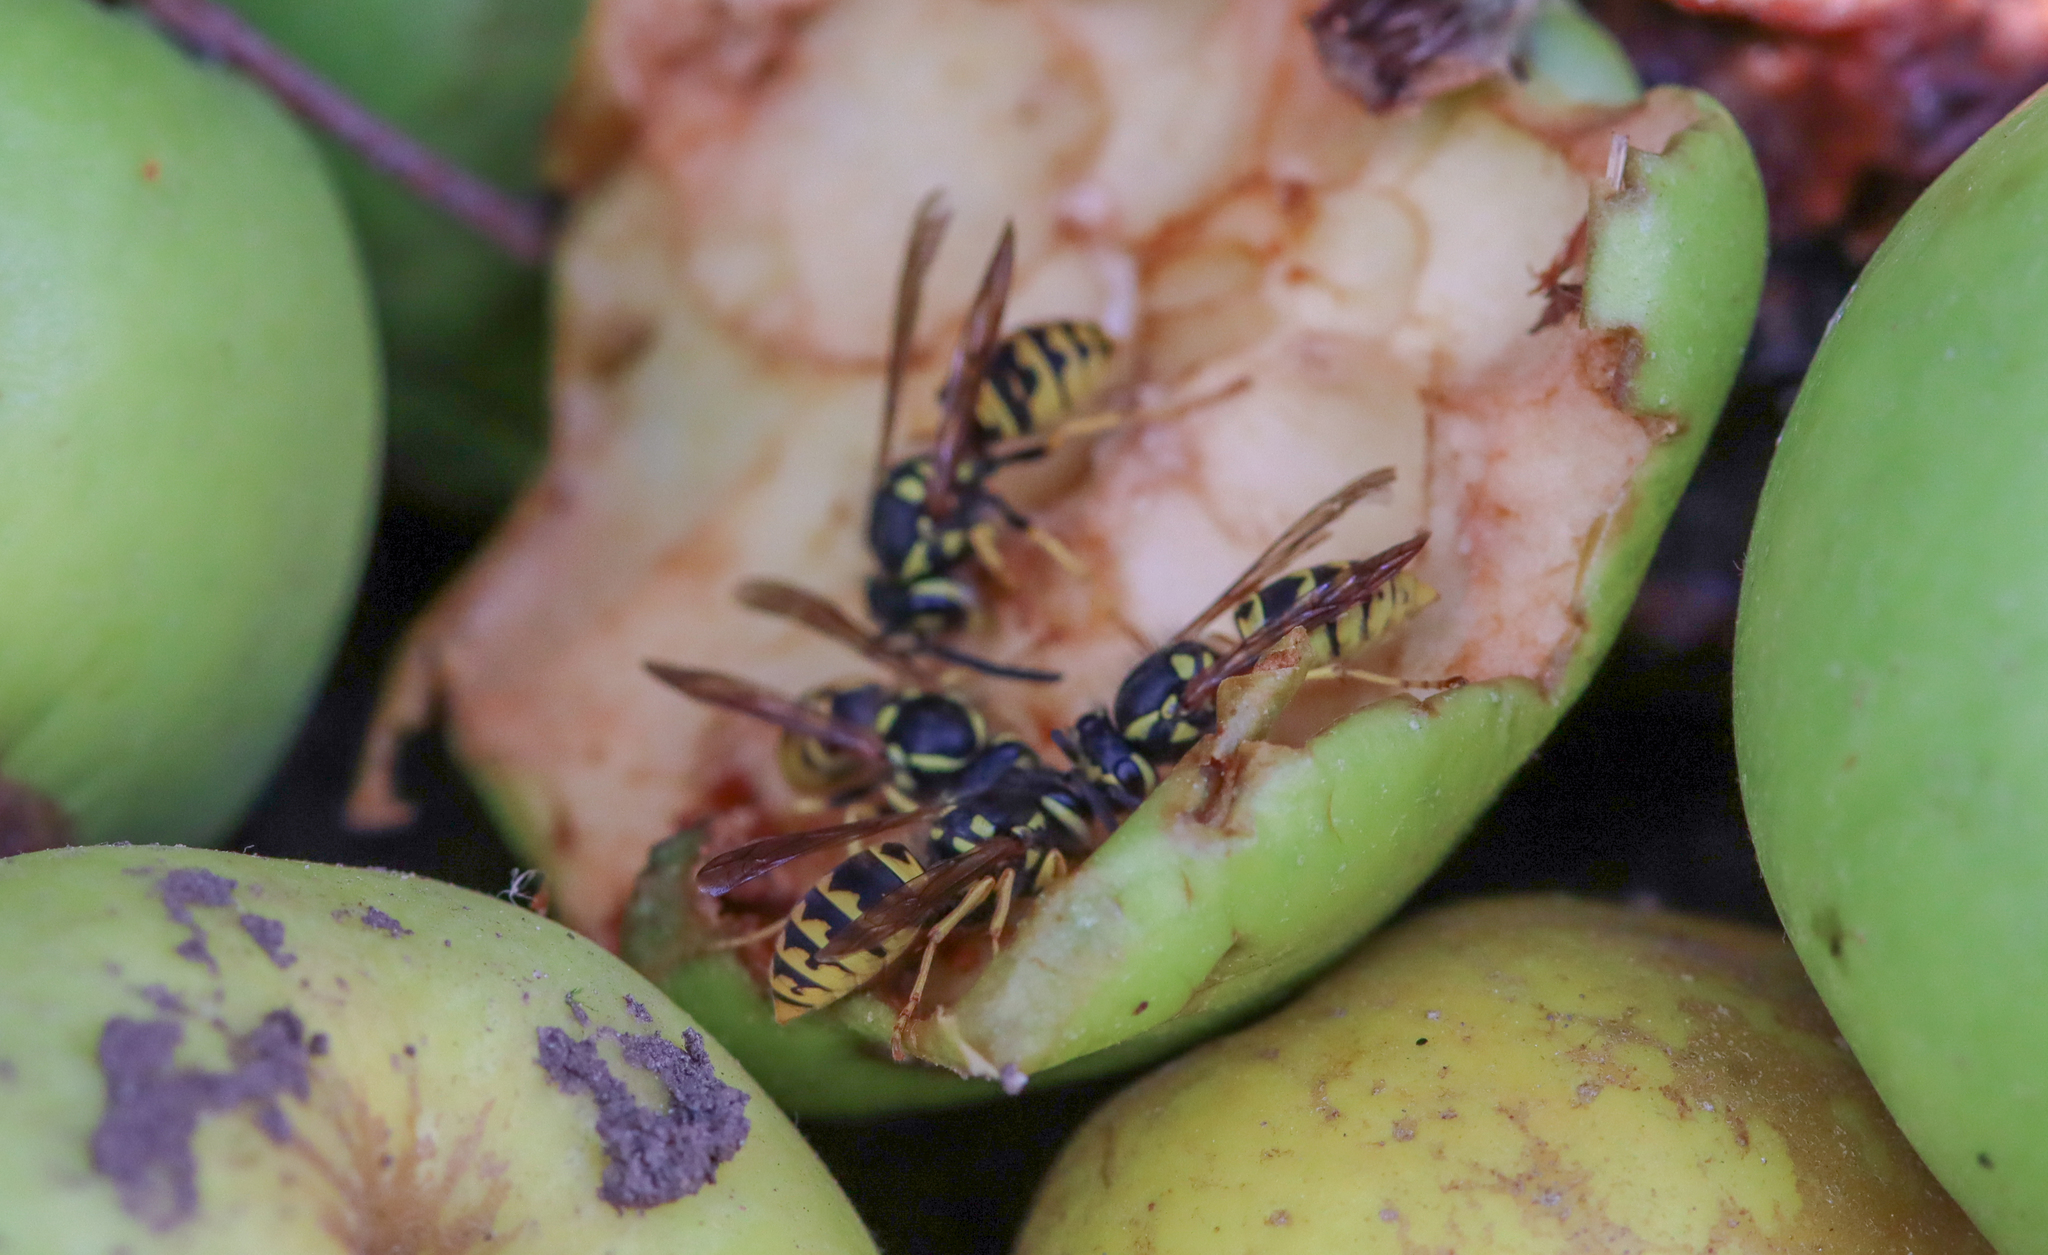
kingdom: Animalia
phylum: Arthropoda
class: Insecta
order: Hymenoptera
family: Vespidae
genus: Vespula
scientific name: Vespula germanica
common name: German wasp
